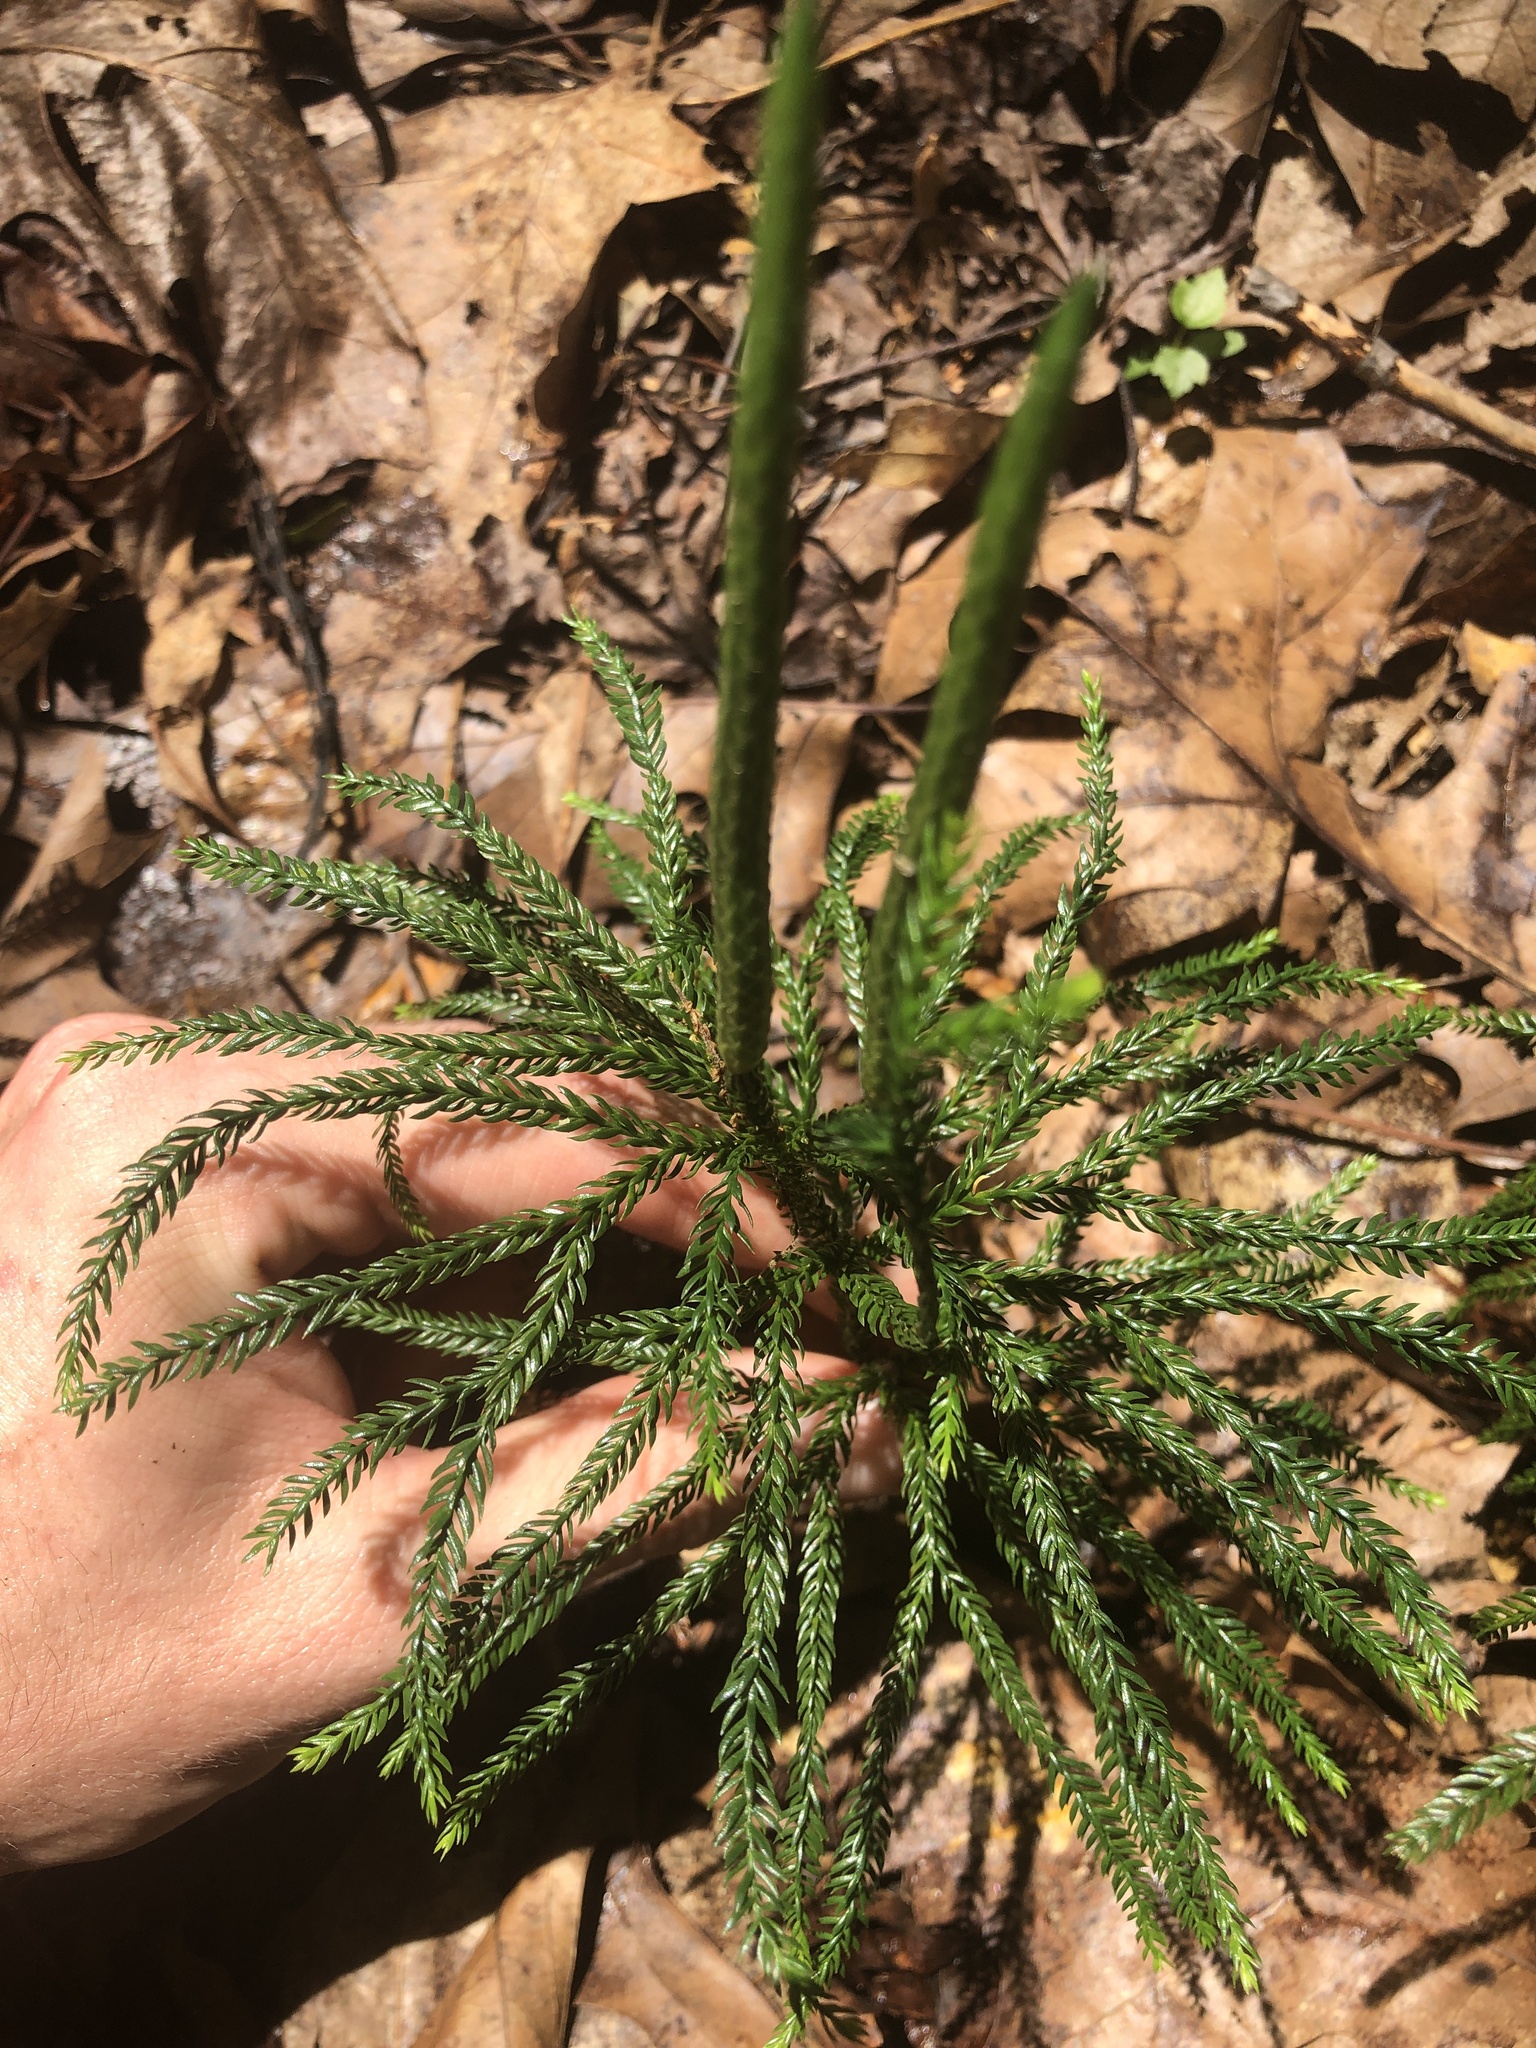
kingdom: Plantae
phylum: Tracheophyta
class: Lycopodiopsida
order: Lycopodiales
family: Lycopodiaceae
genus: Dendrolycopodium
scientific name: Dendrolycopodium obscurum
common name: Common ground-pine
